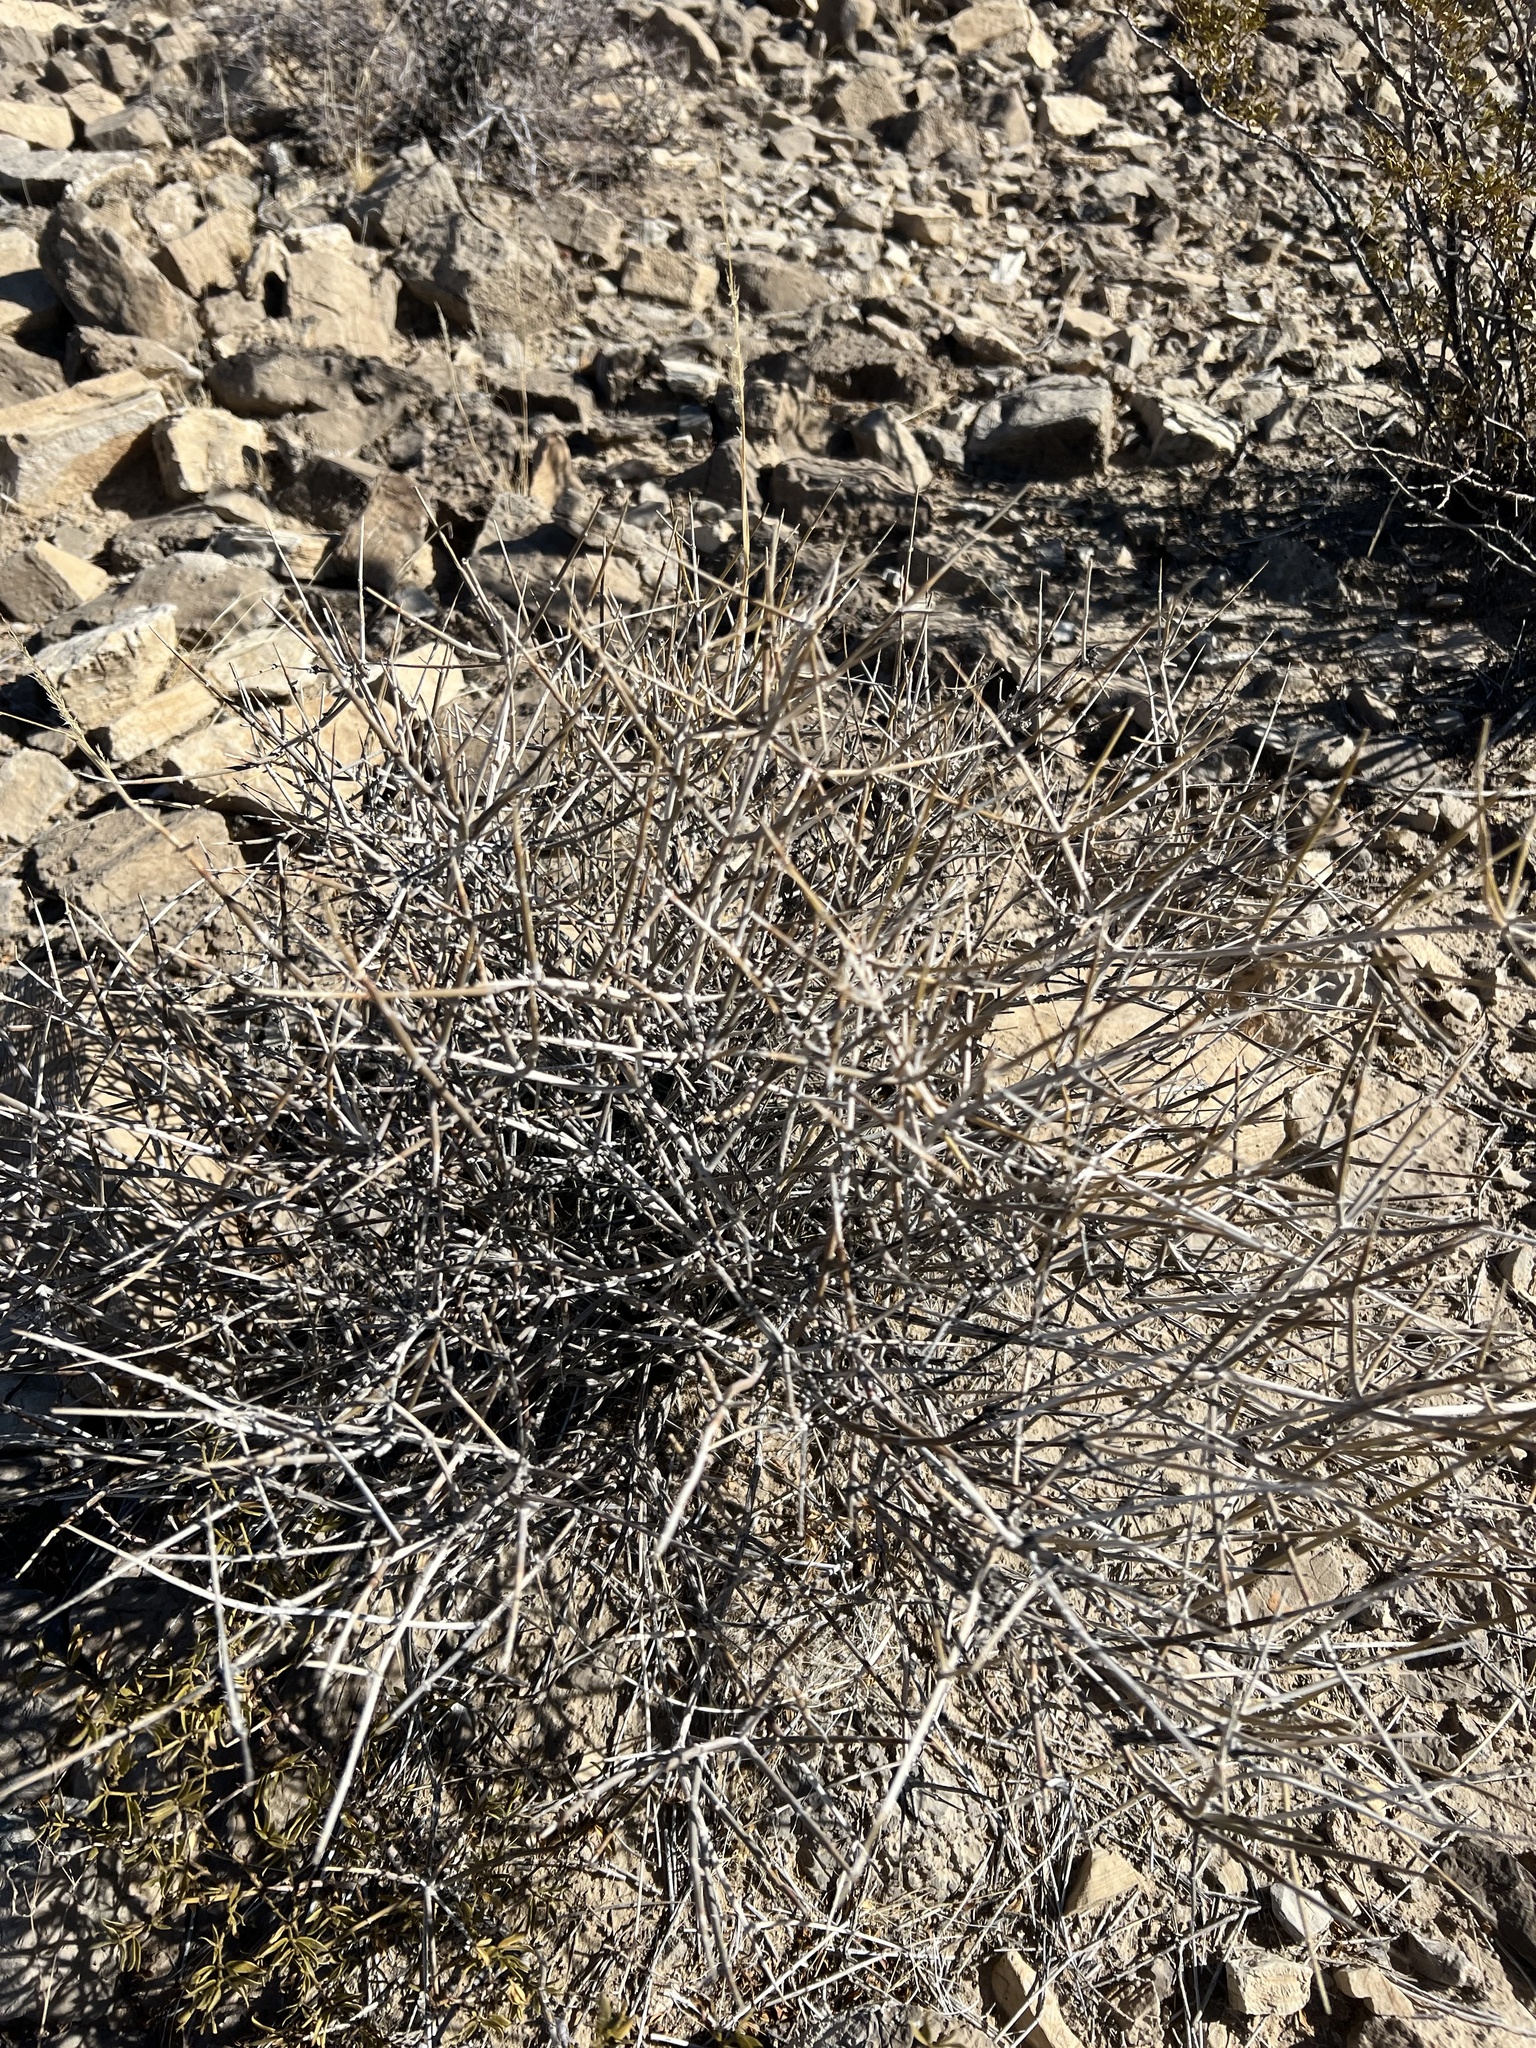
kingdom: Plantae
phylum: Tracheophyta
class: Gnetopsida
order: Ephedrales
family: Ephedraceae
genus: Ephedra
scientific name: Ephedra nevadensis
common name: Gray ephedra
